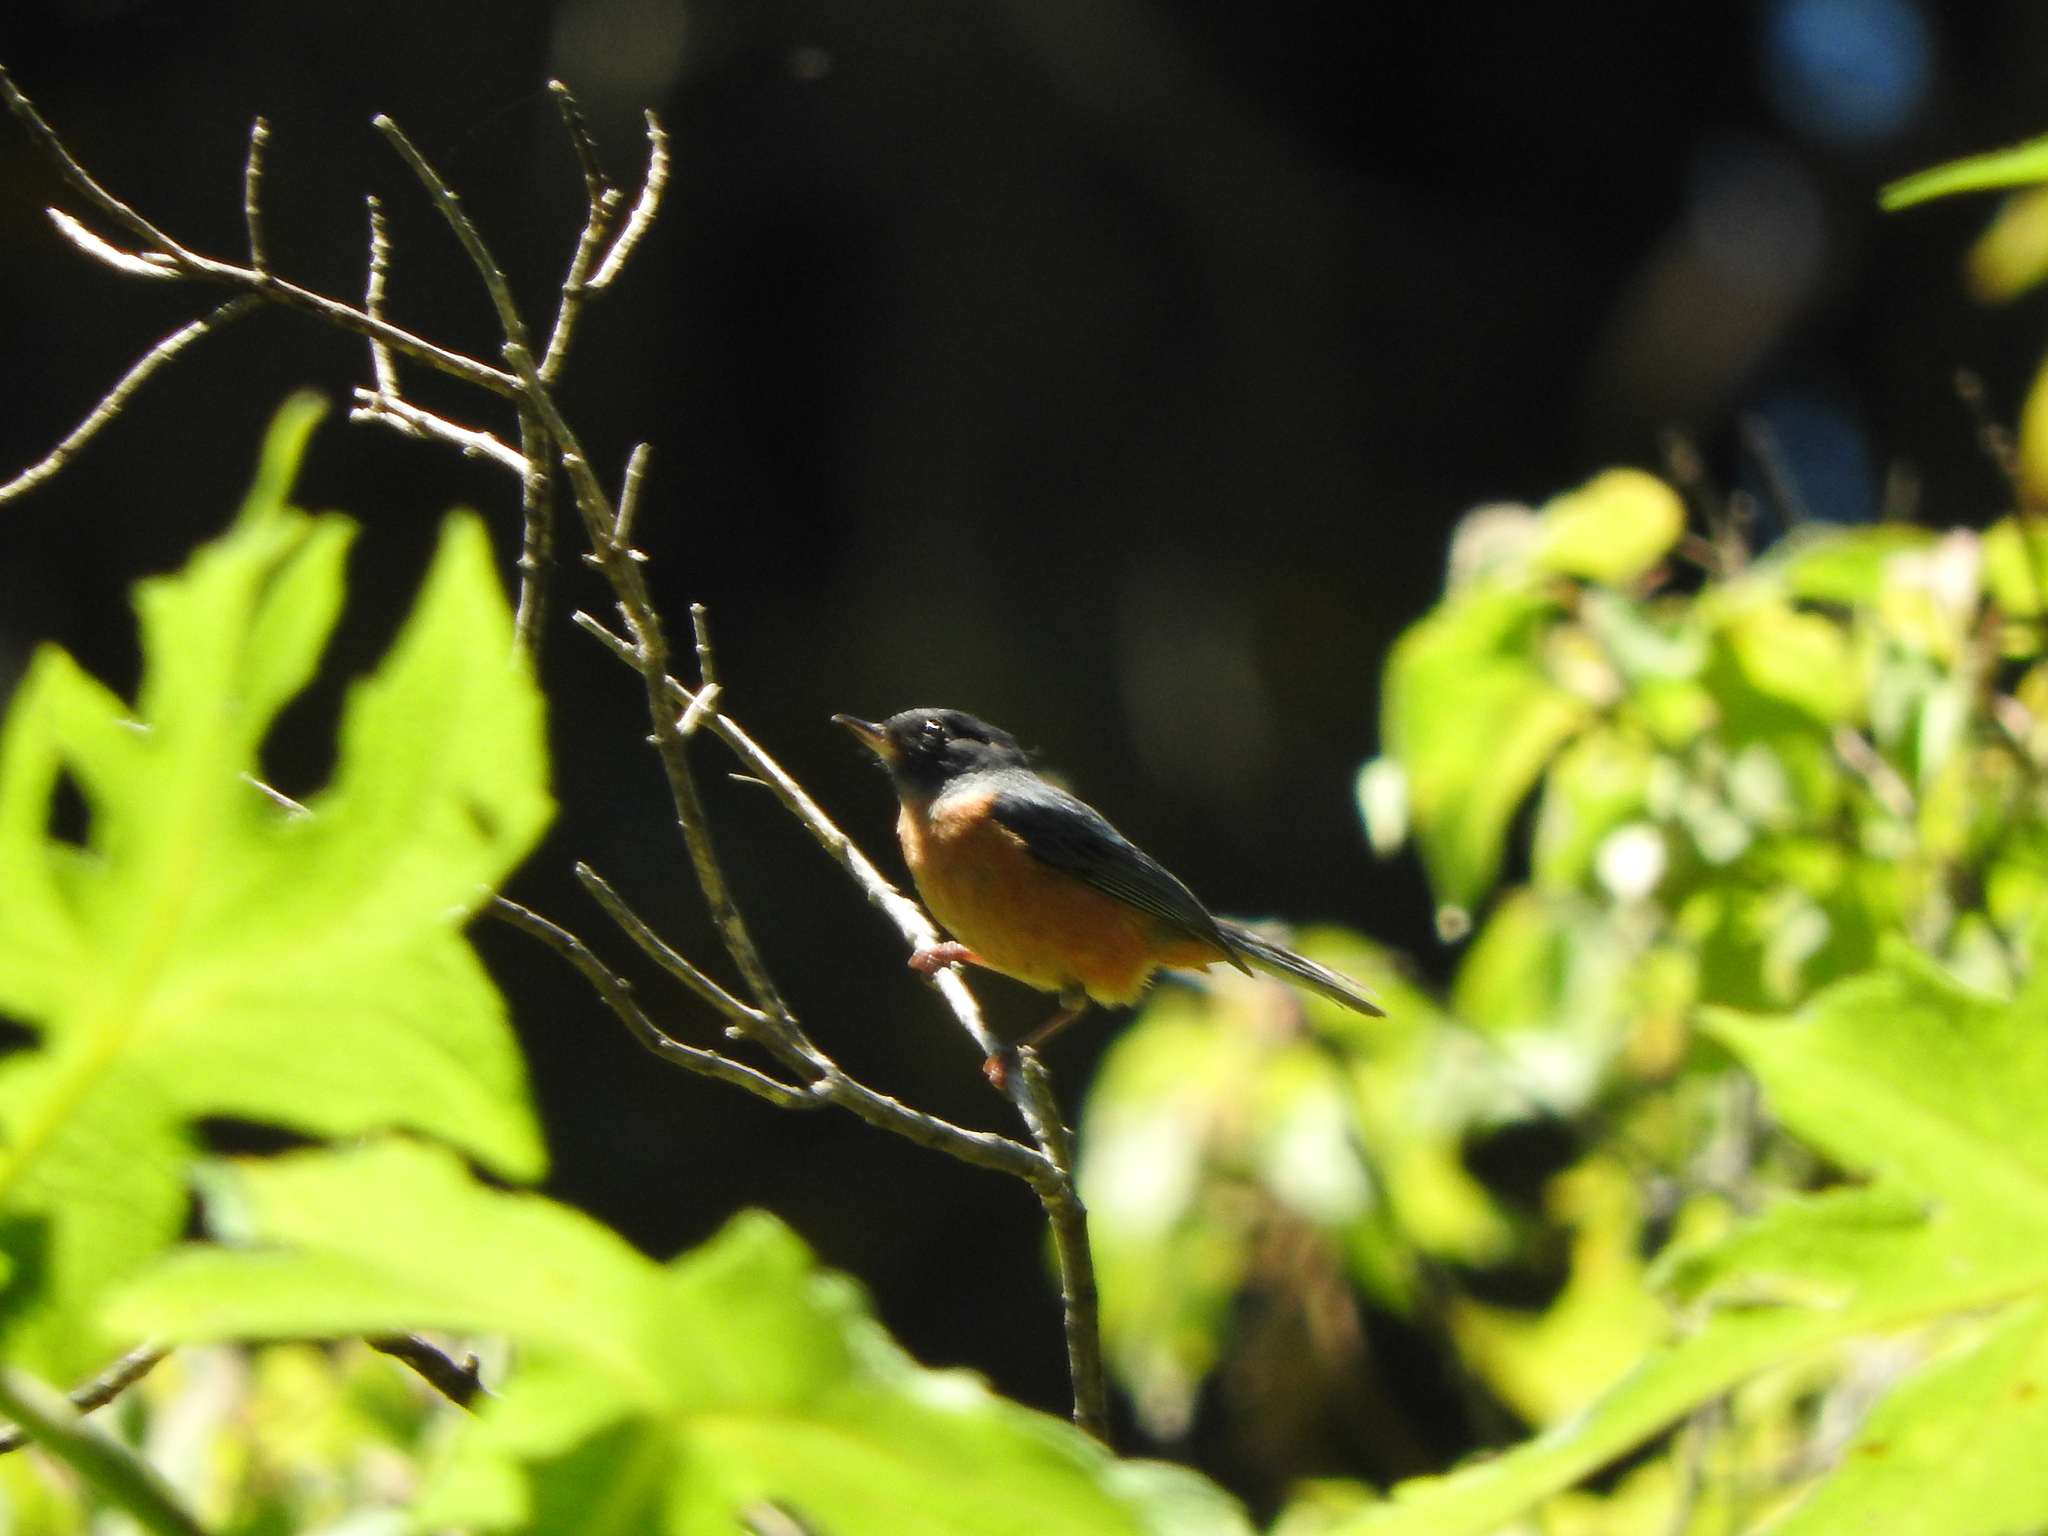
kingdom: Animalia
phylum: Chordata
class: Aves
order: Passeriformes
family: Thraupidae
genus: Diglossa
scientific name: Diglossa baritula
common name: Cinnamon-bellied flowerpiercer
